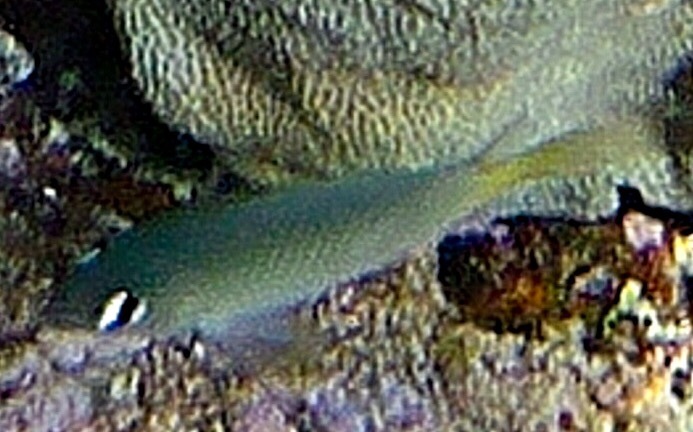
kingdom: Animalia
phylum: Chordata
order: Perciformes
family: Pomacentridae
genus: Plectroglyphidodon
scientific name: Plectroglyphidodon imparipennis
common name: Brighteye damsel
